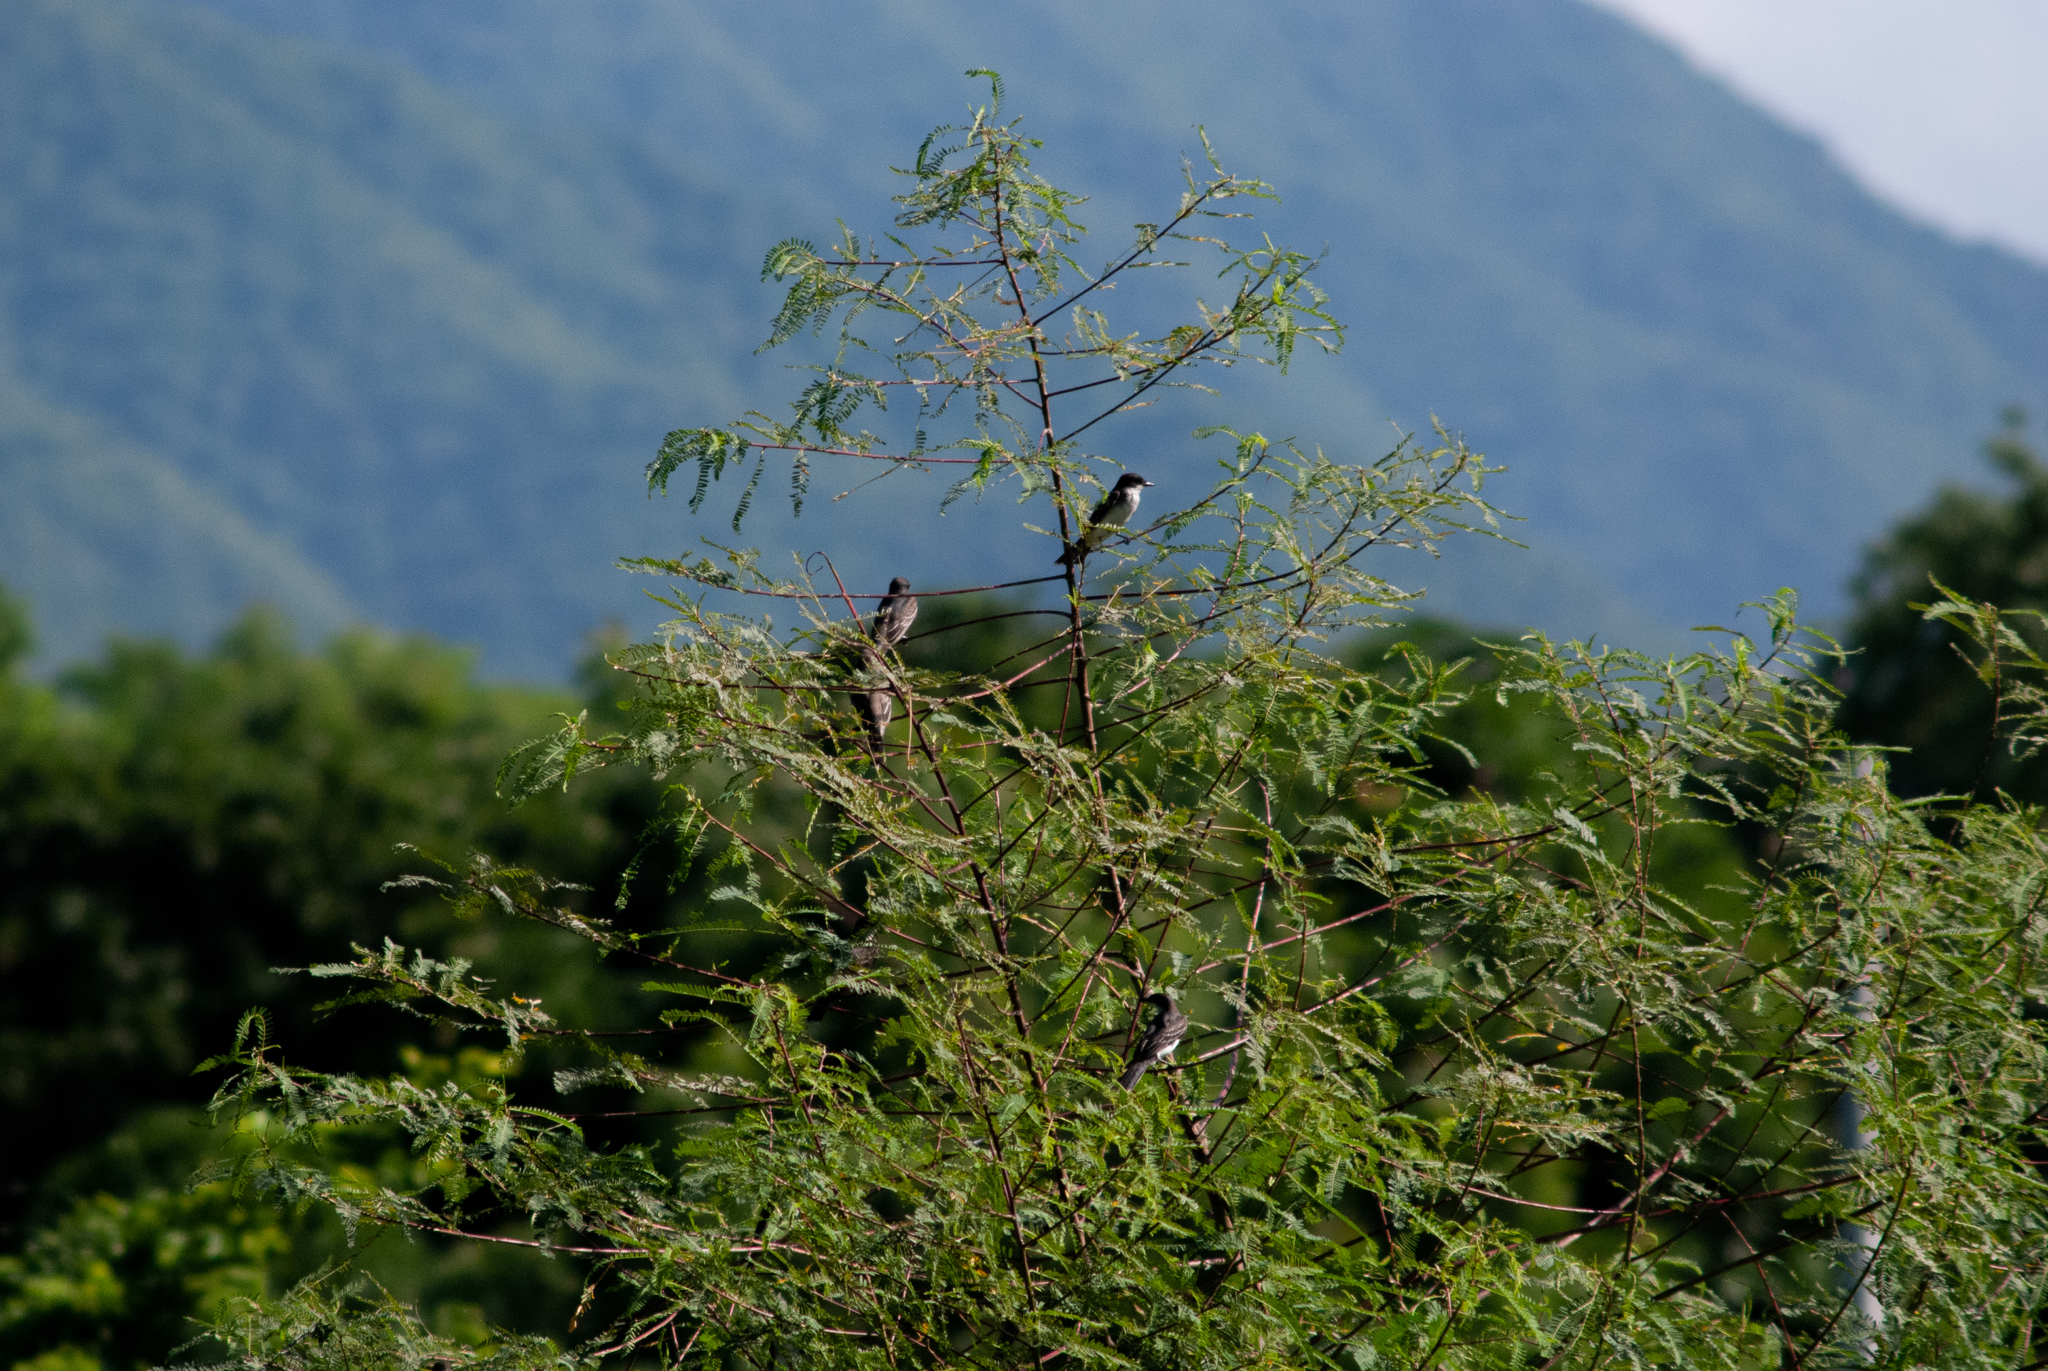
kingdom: Animalia
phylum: Chordata
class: Aves
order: Passeriformes
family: Tyrannidae
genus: Tyrannus
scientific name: Tyrannus tyrannus
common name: Eastern kingbird
